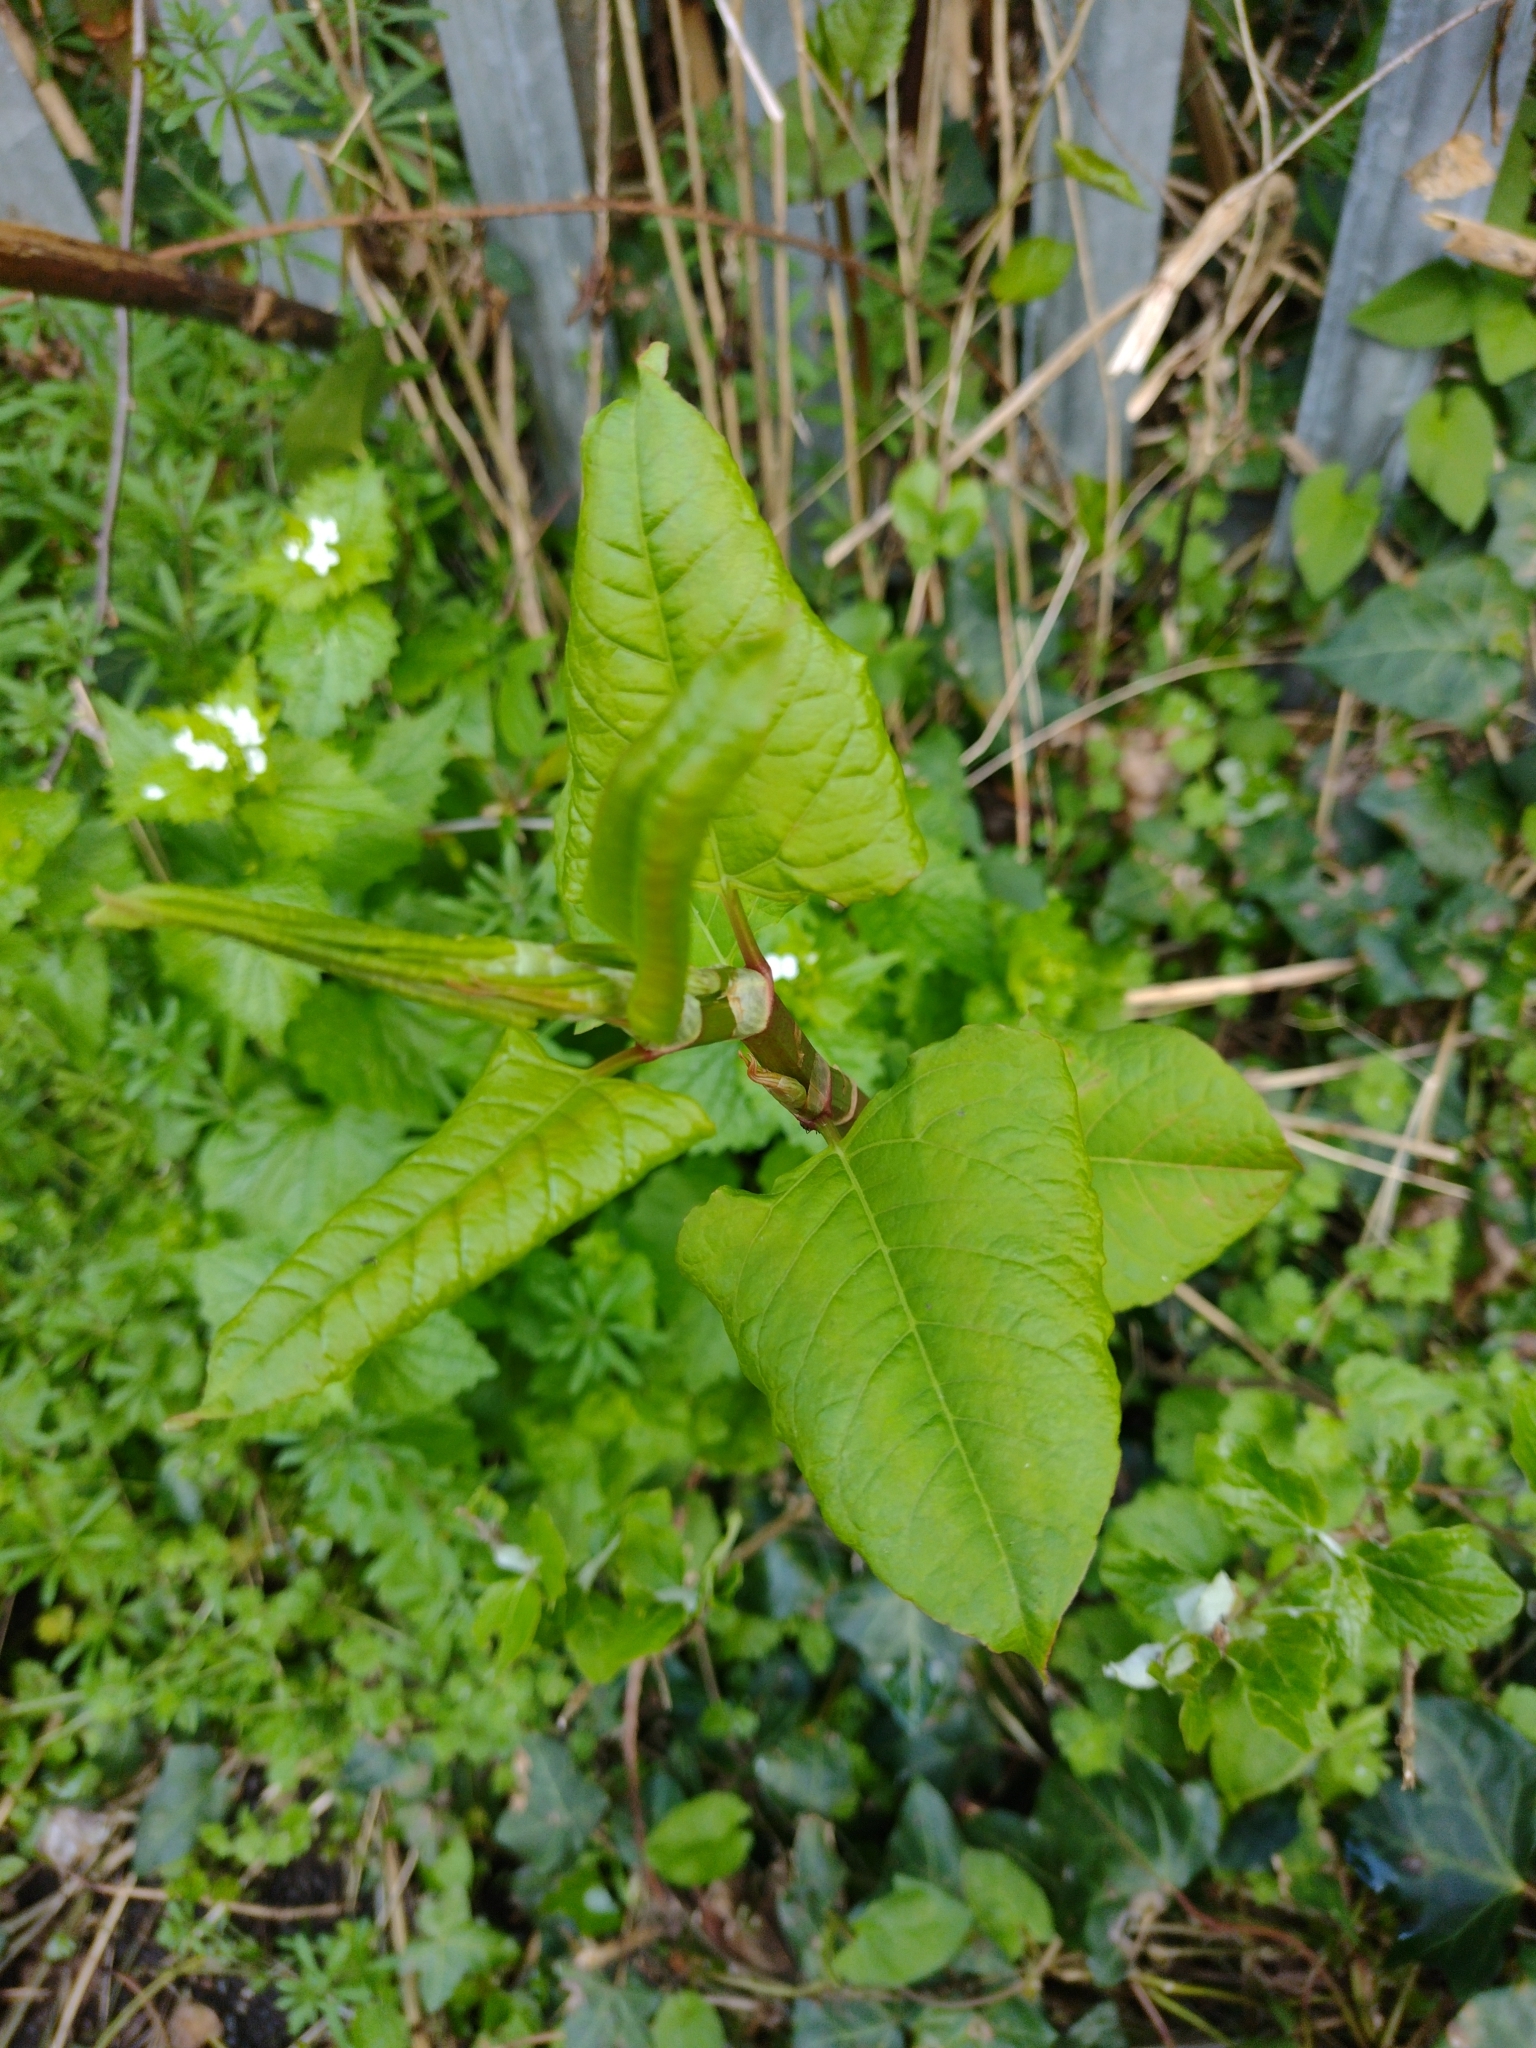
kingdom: Plantae
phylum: Tracheophyta
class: Magnoliopsida
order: Caryophyllales
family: Polygonaceae
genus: Reynoutria
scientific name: Reynoutria japonica
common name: Japanese knotweed
